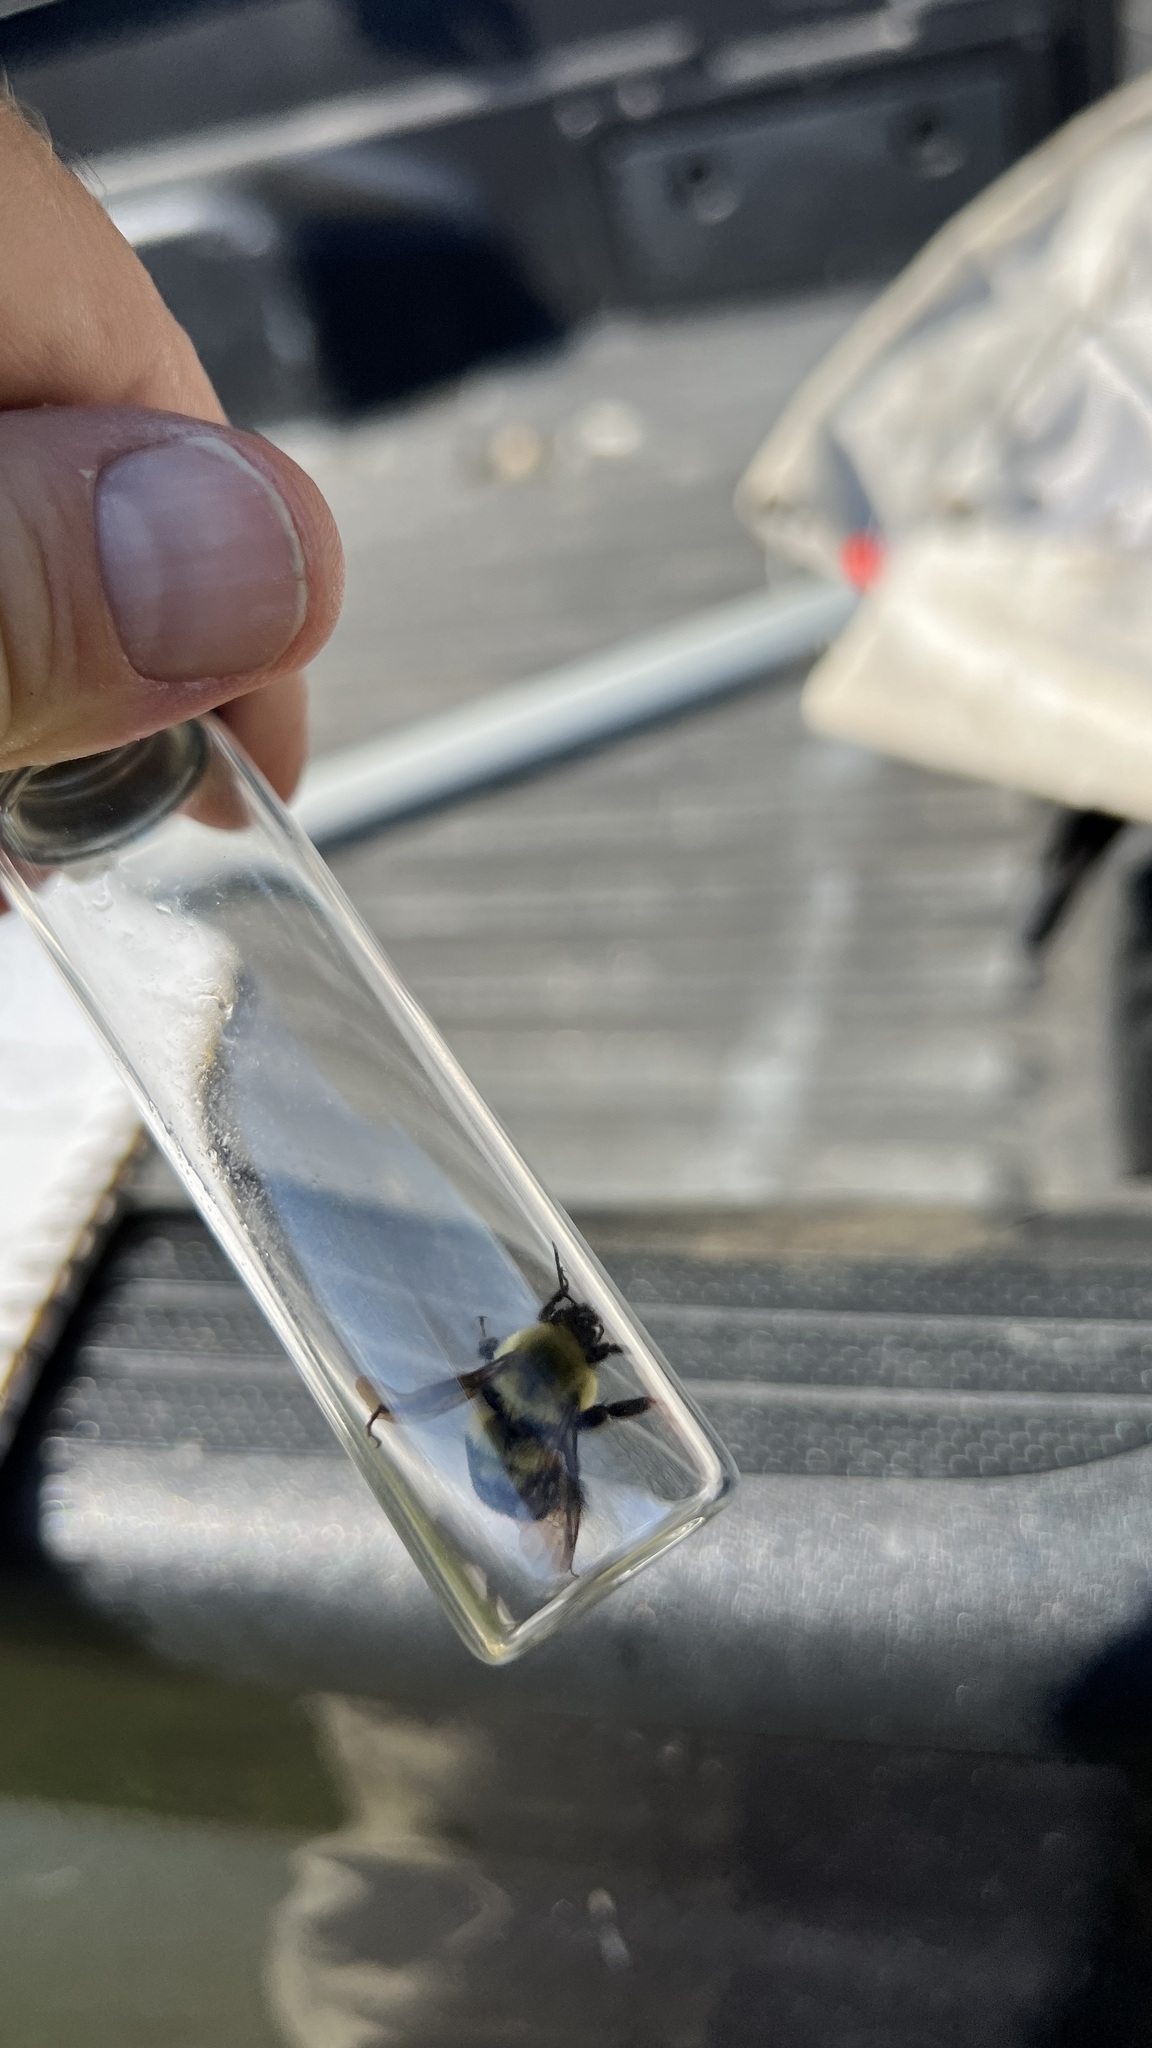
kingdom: Animalia
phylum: Arthropoda
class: Insecta
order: Hymenoptera
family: Apidae
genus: Bombus
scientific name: Bombus bimaculatus
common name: Two-spotted bumble bee
